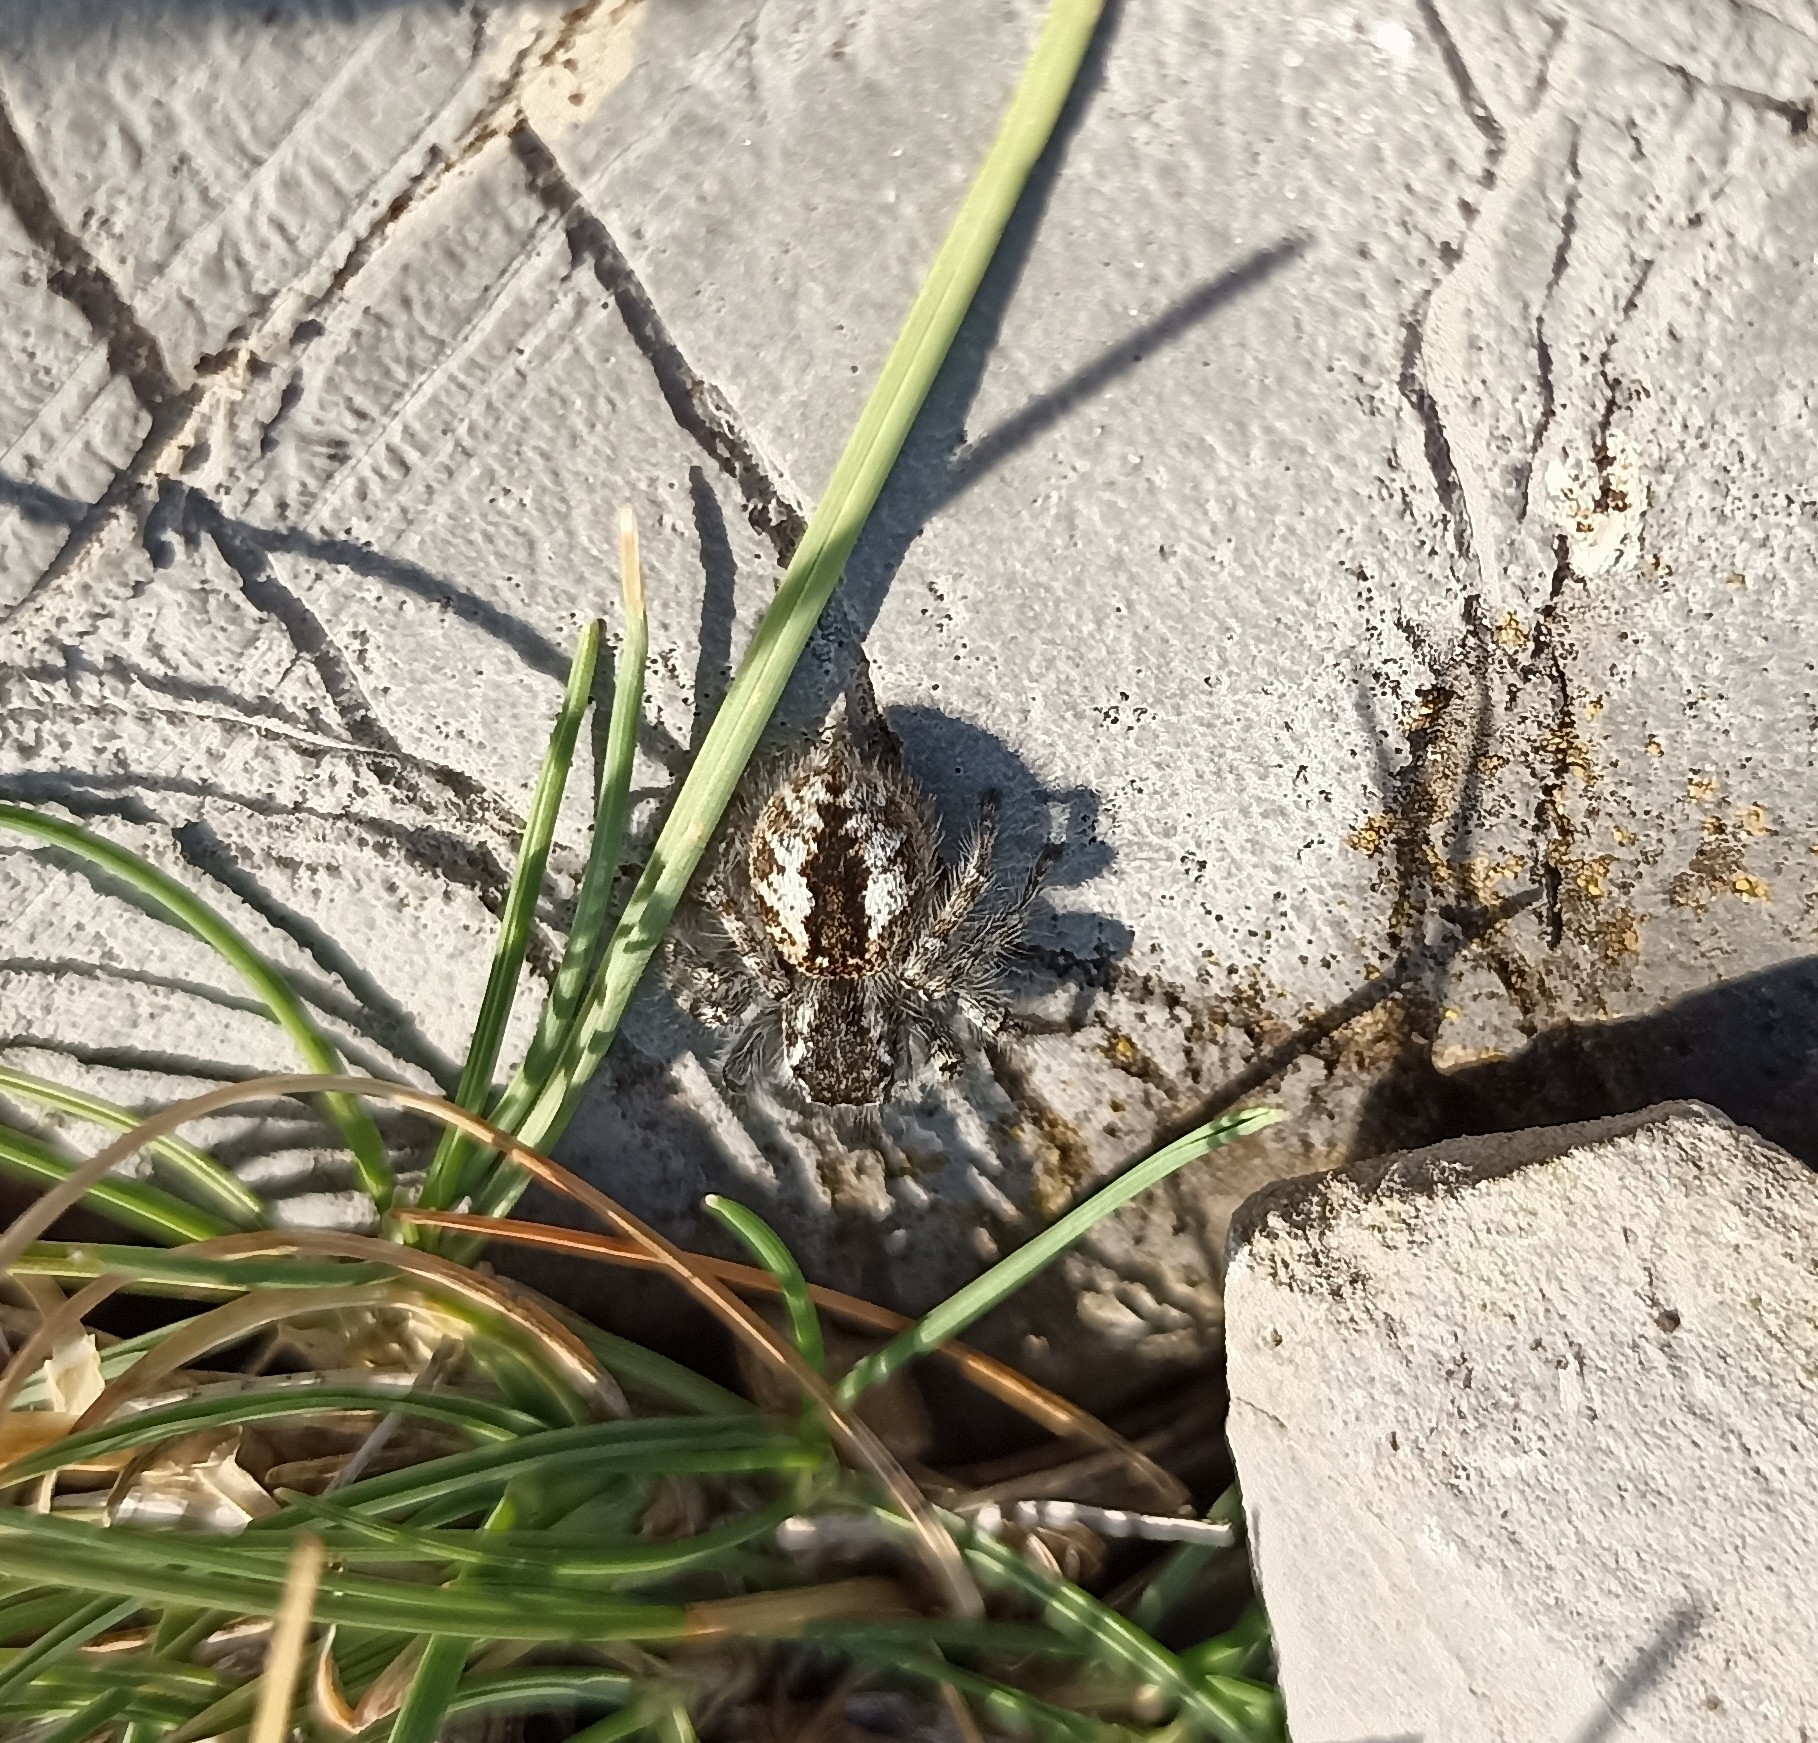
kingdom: Animalia
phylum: Arthropoda
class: Arachnida
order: Araneae
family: Salticidae
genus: Philaeus
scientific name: Philaeus chrysops
